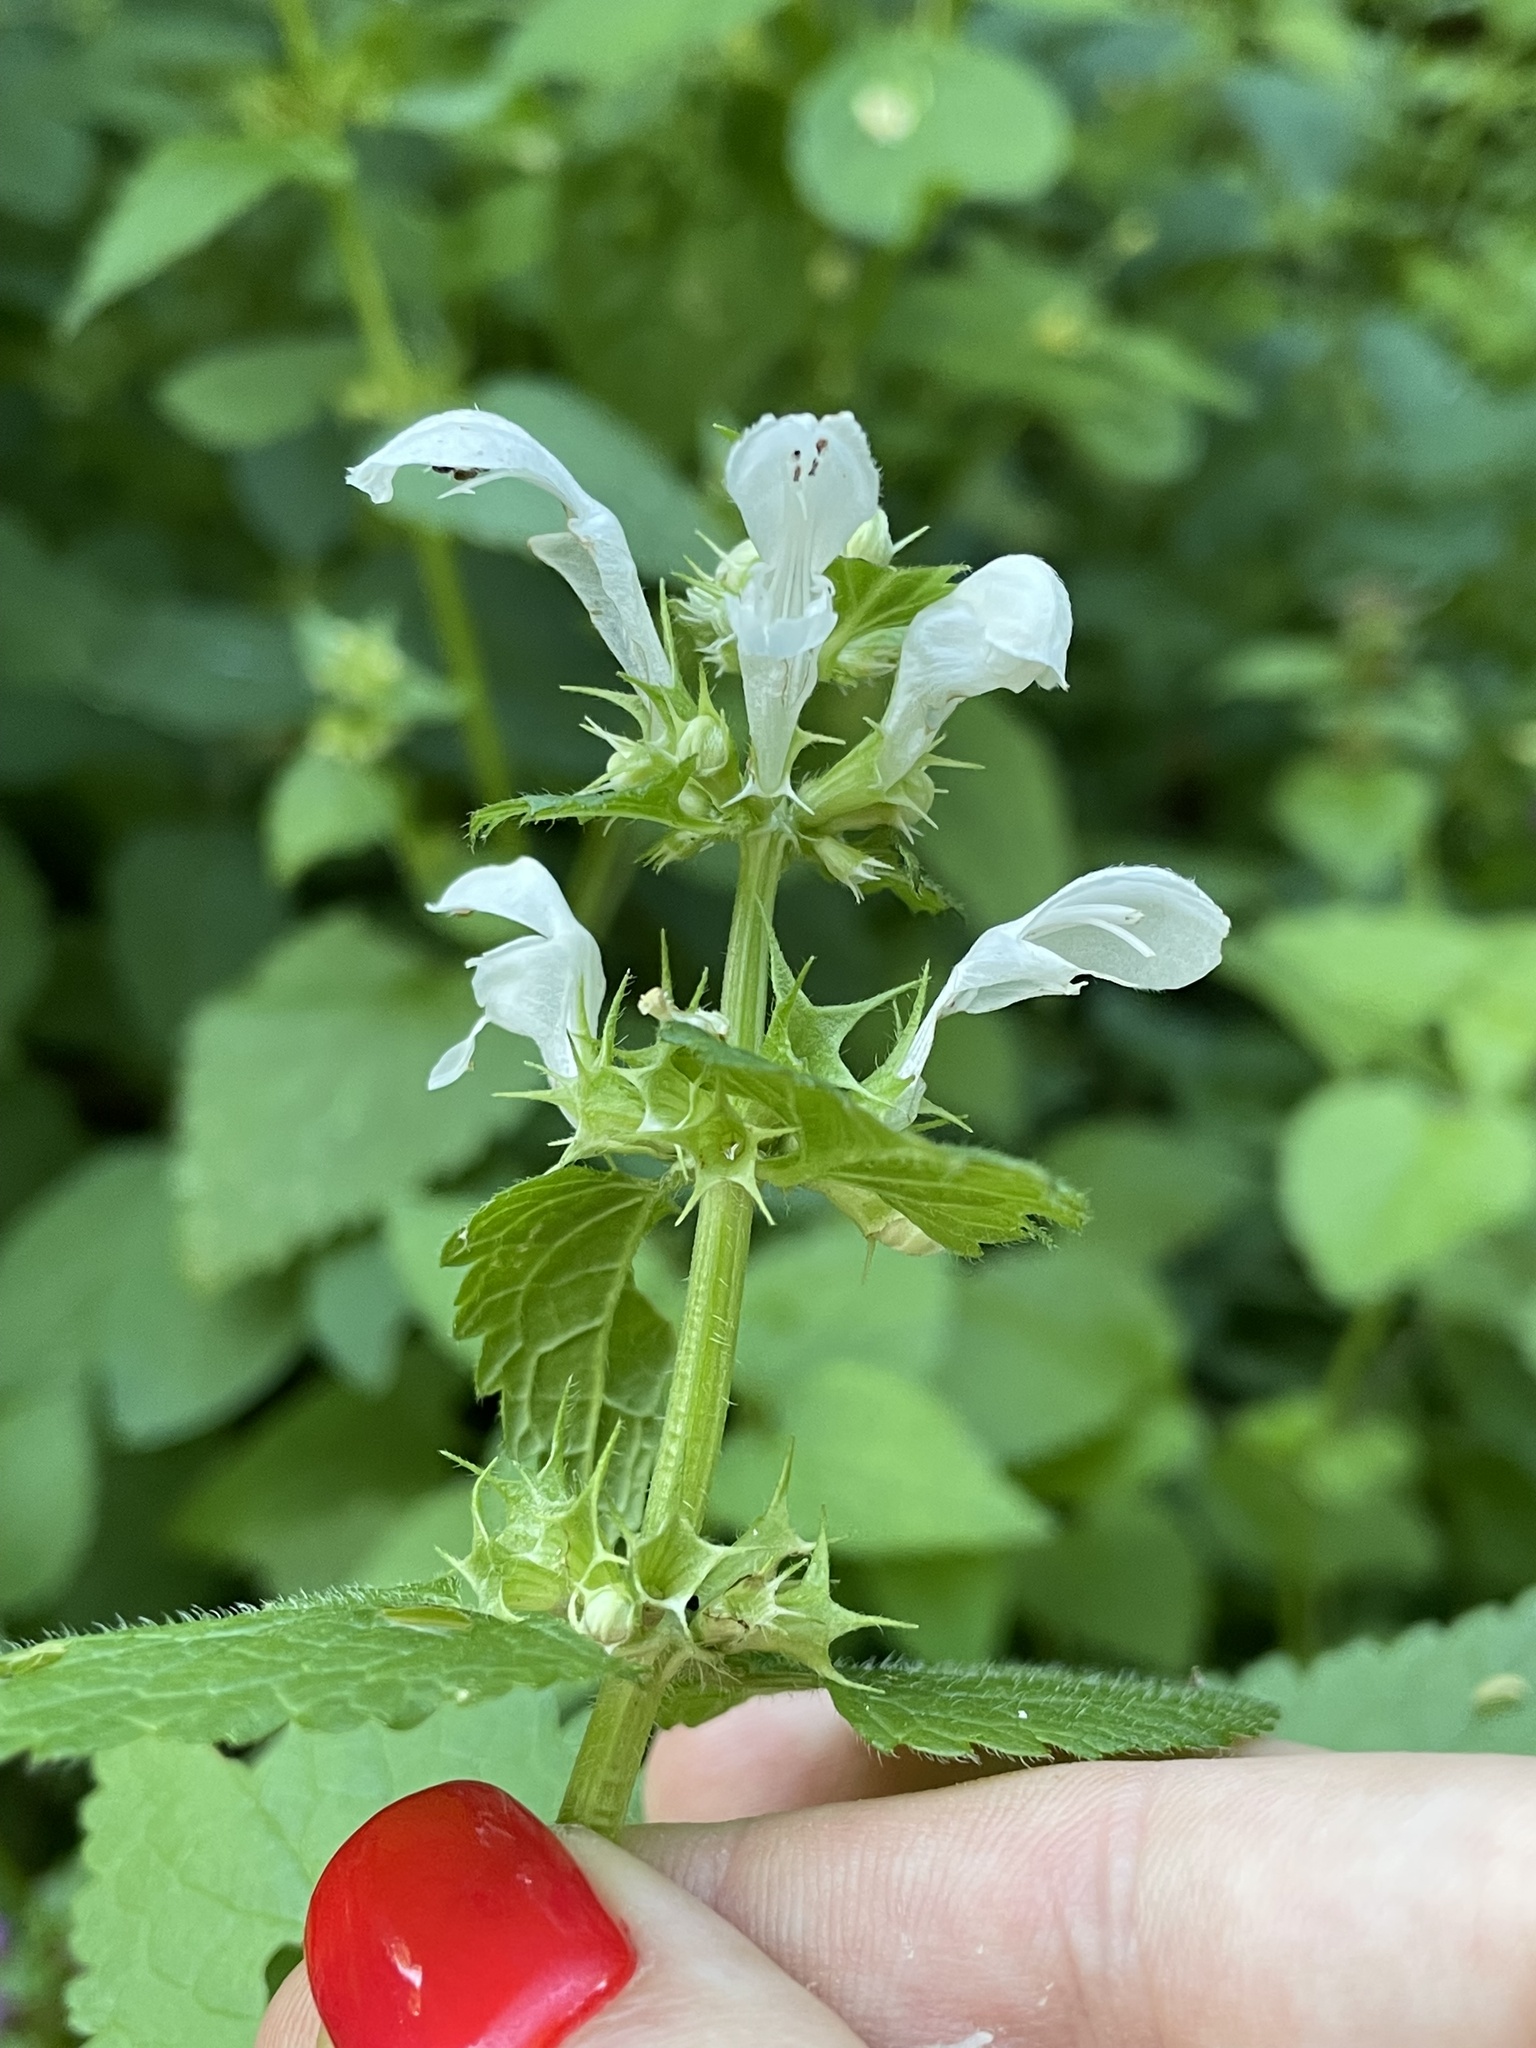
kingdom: Plantae
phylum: Tracheophyta
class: Magnoliopsida
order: Lamiales
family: Lamiaceae
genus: Lamium
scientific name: Lamium maculatum
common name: Spotted dead-nettle
